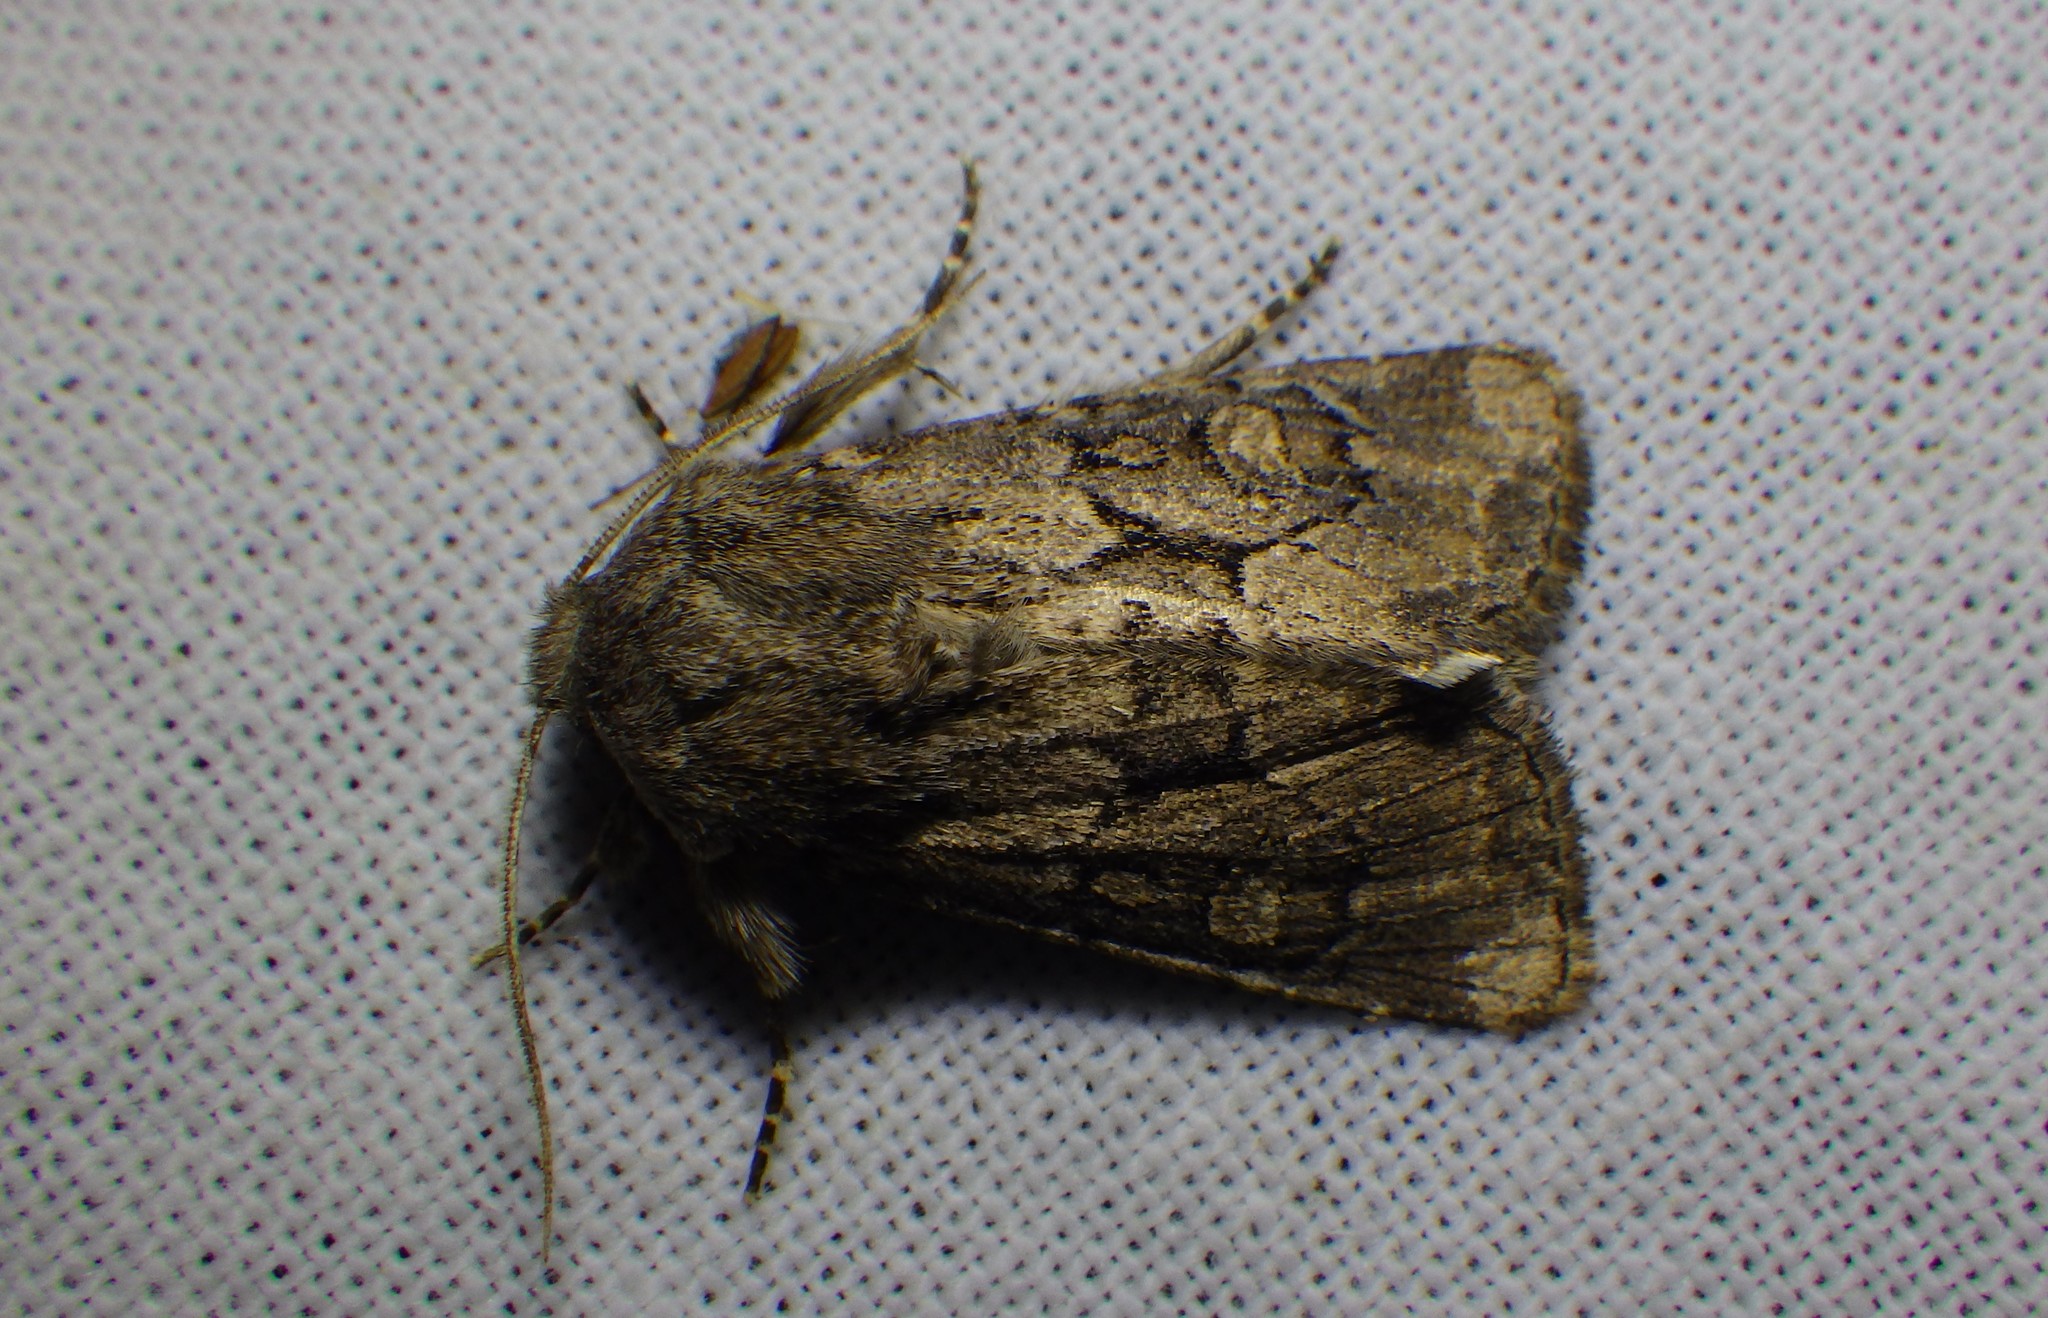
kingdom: Animalia
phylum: Arthropoda
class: Insecta
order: Lepidoptera
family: Noctuidae
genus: Luperina
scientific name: Luperina testacea
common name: Flounced rustic
